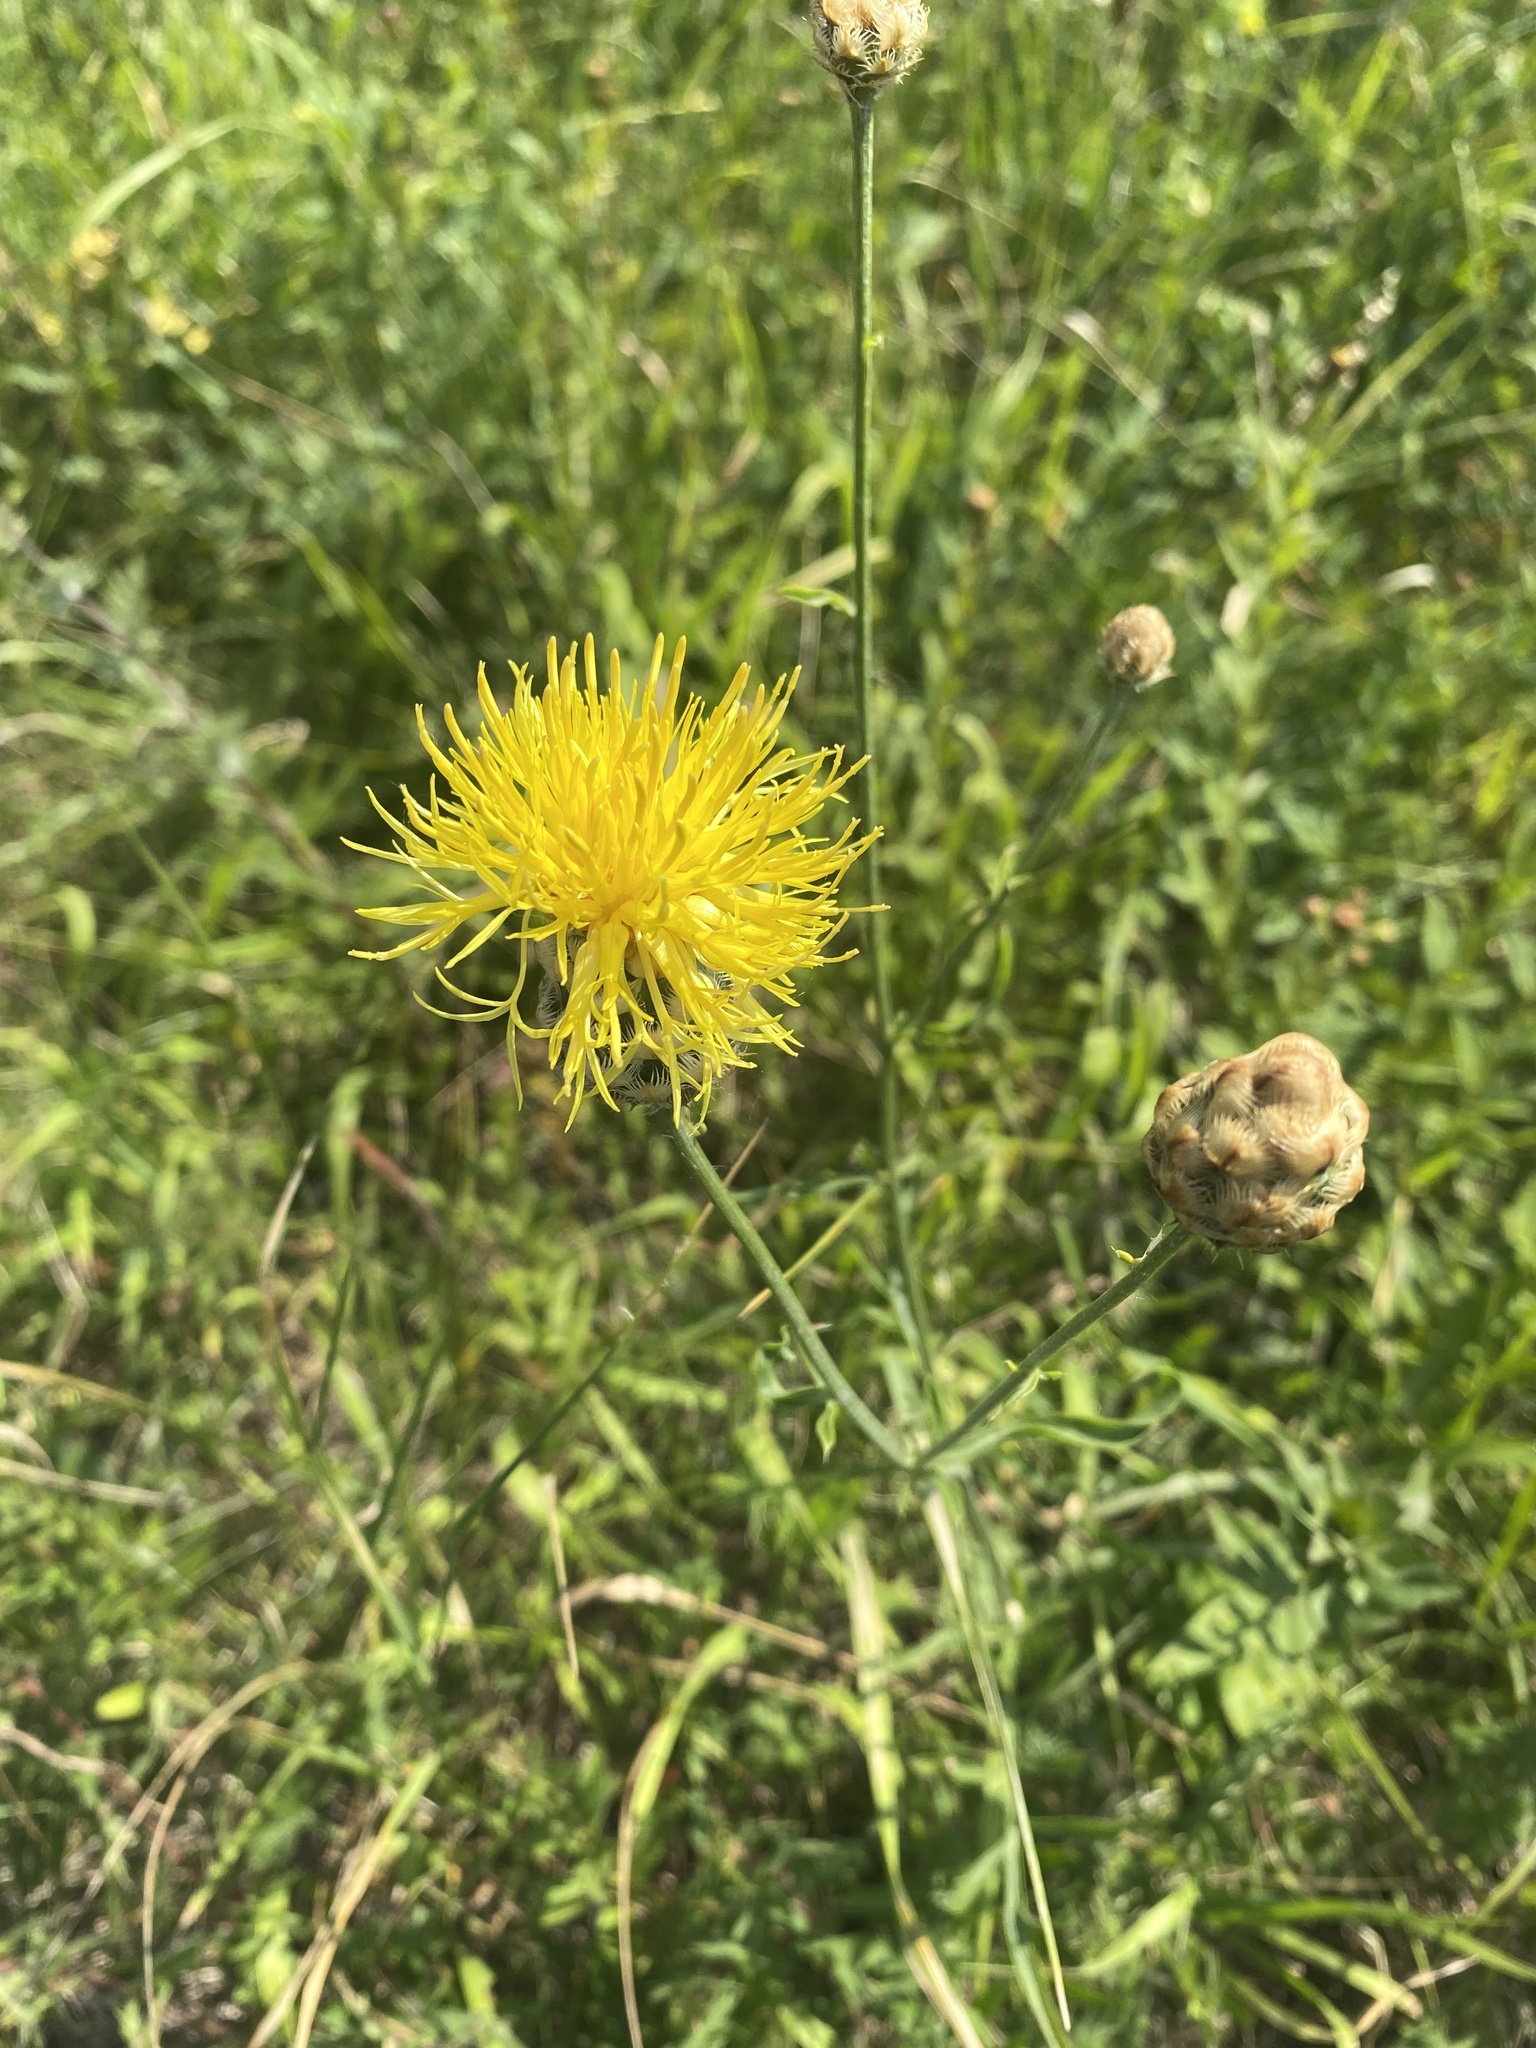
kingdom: Plantae
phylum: Tracheophyta
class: Magnoliopsida
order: Asterales
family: Asteraceae
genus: Centaurea
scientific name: Centaurea orientalis
